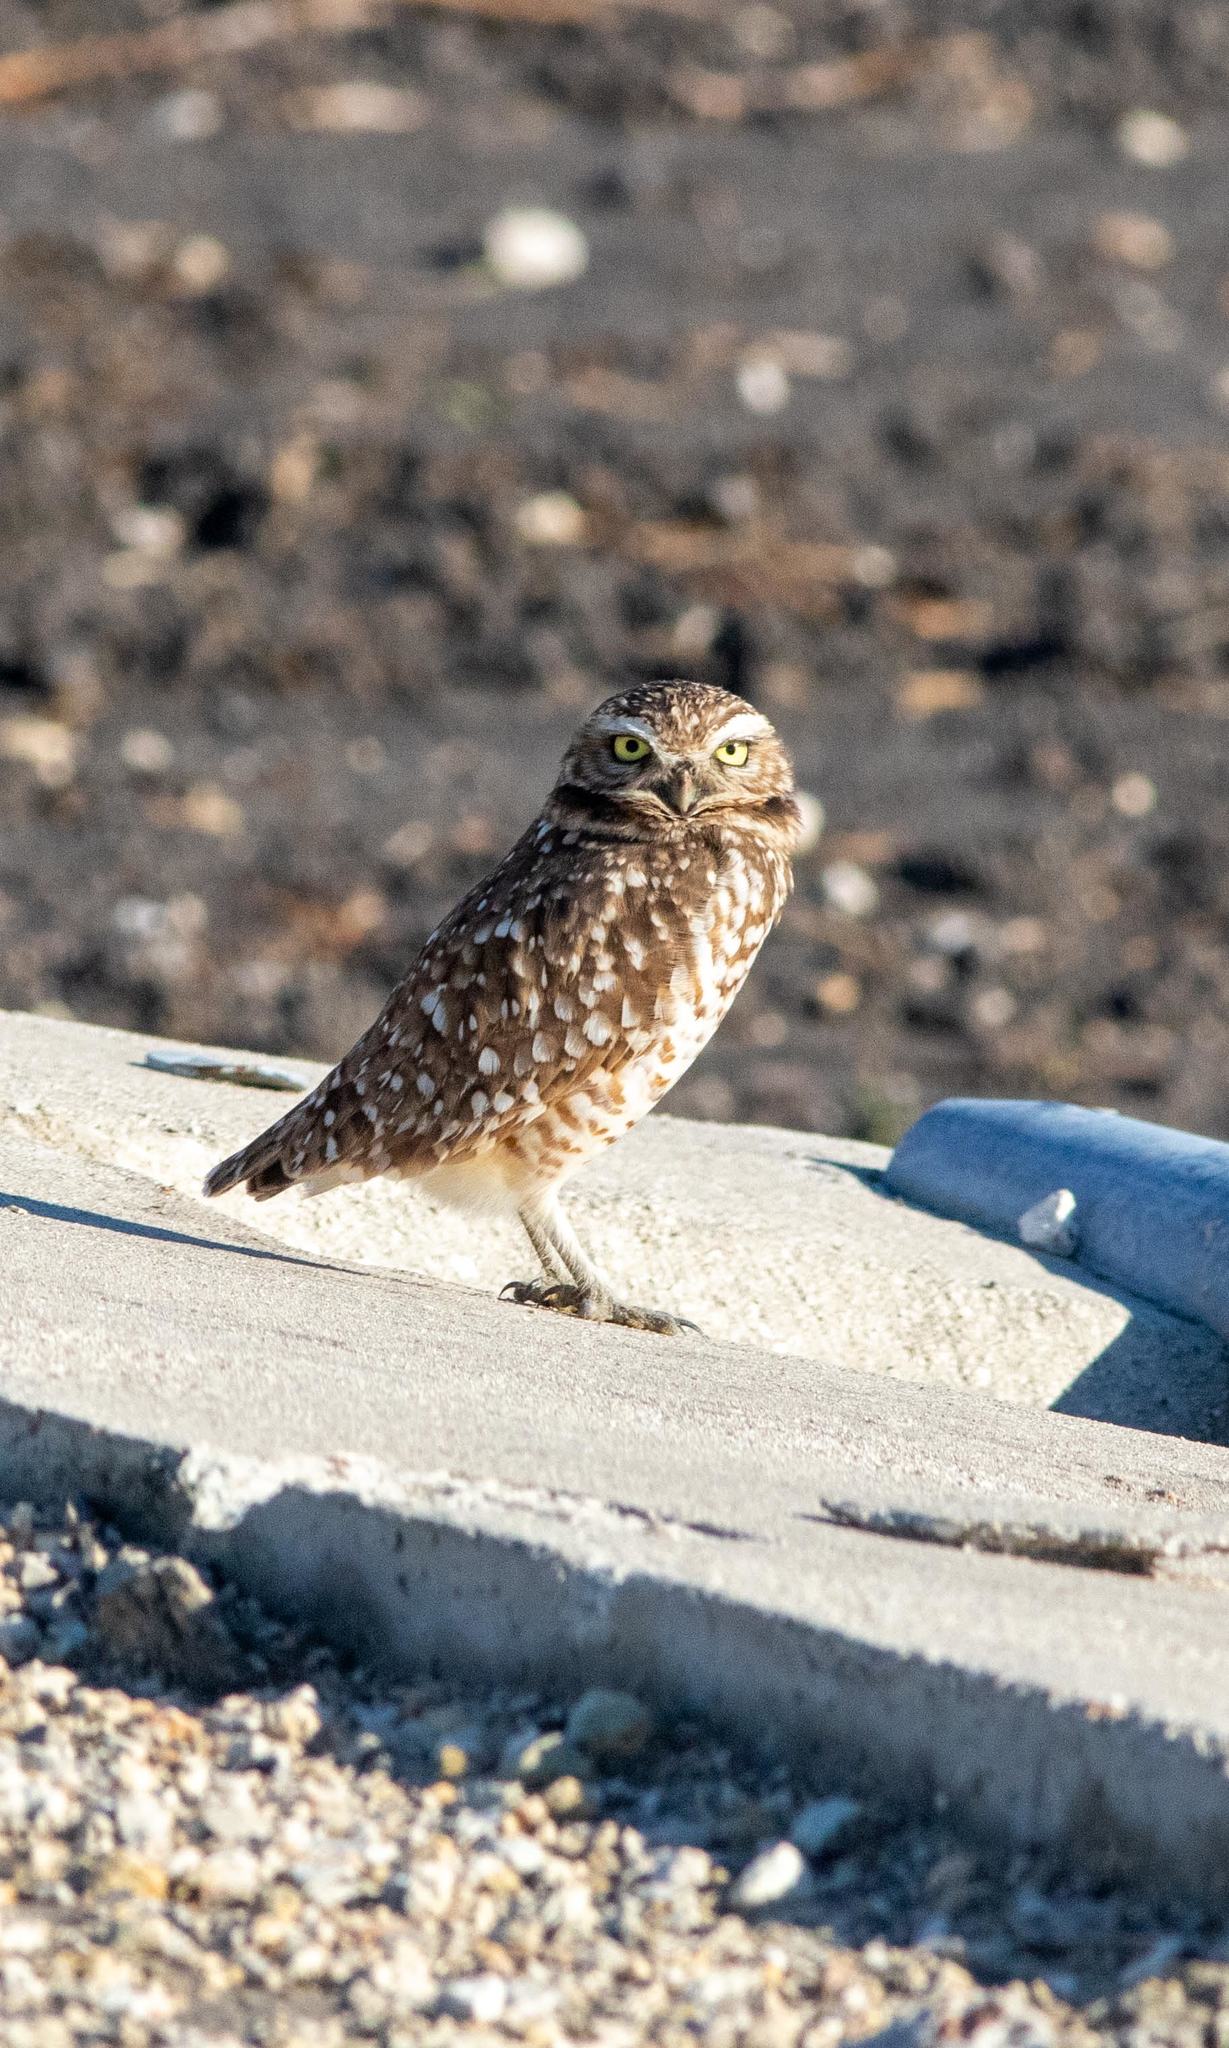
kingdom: Animalia
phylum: Chordata
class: Aves
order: Strigiformes
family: Strigidae
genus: Athene
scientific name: Athene cunicularia
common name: Burrowing owl
